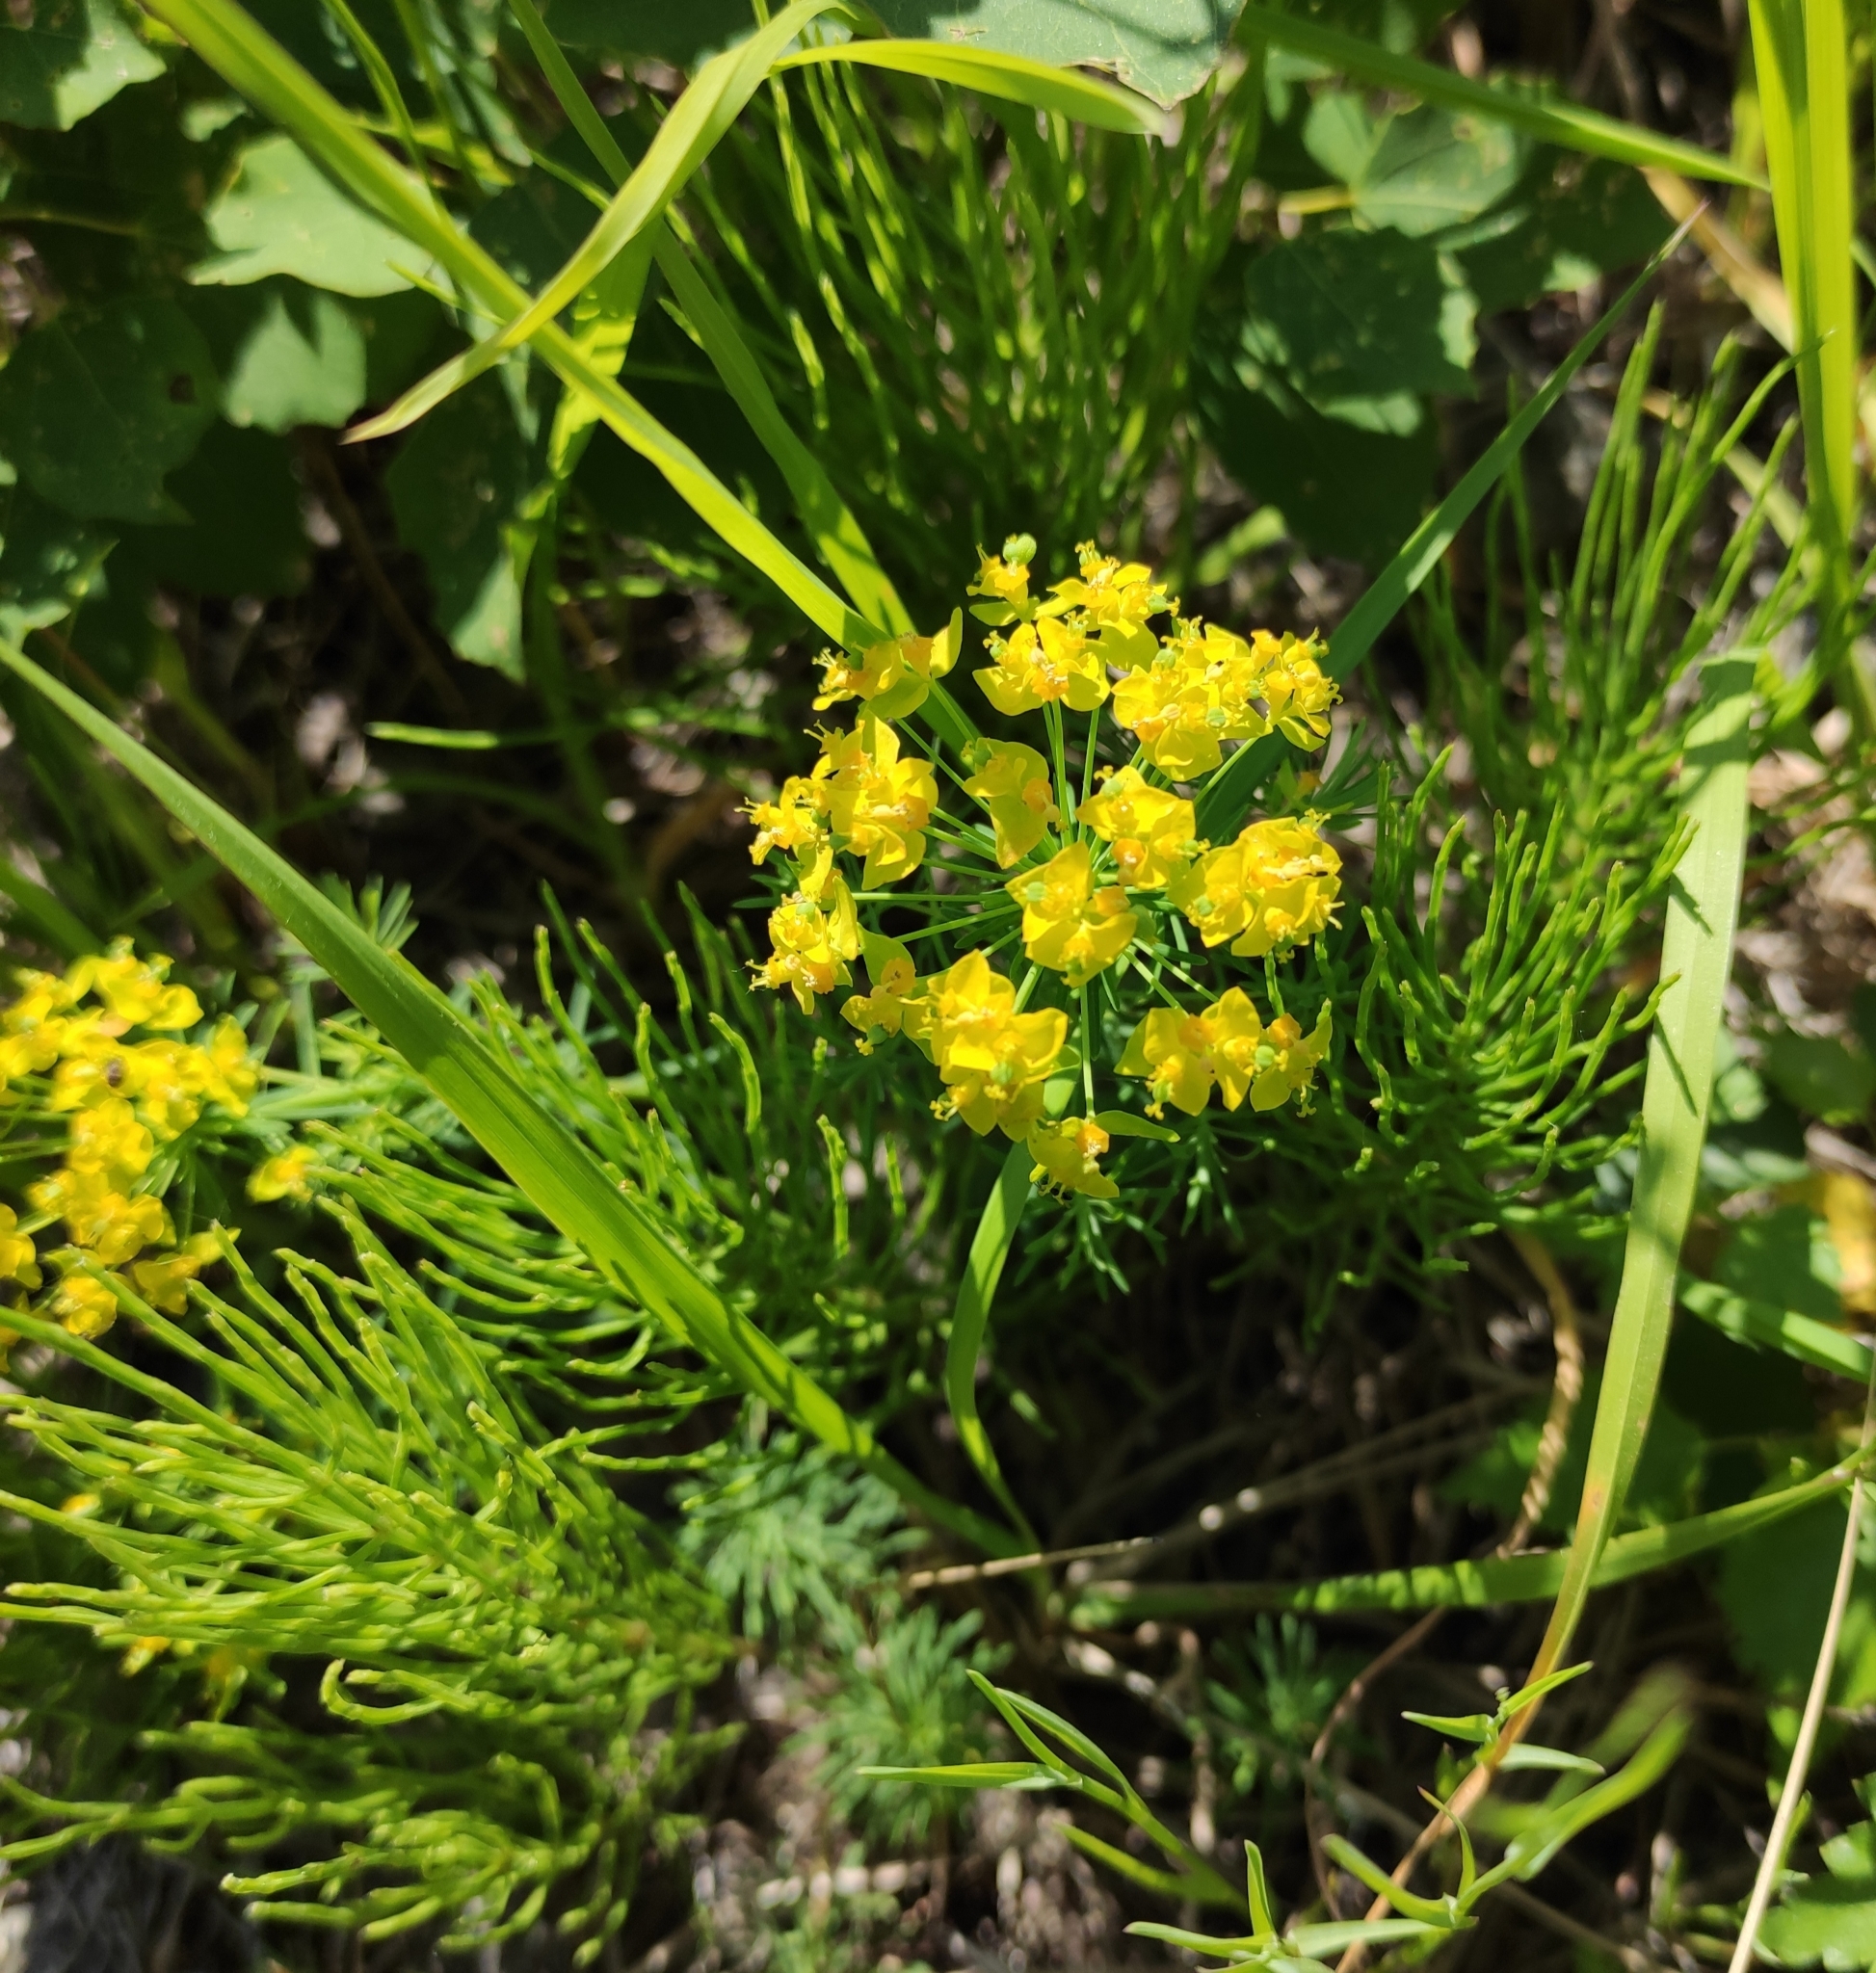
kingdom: Plantae
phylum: Tracheophyta
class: Magnoliopsida
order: Malpighiales
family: Euphorbiaceae
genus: Euphorbia
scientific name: Euphorbia cyparissias
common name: Cypress spurge
